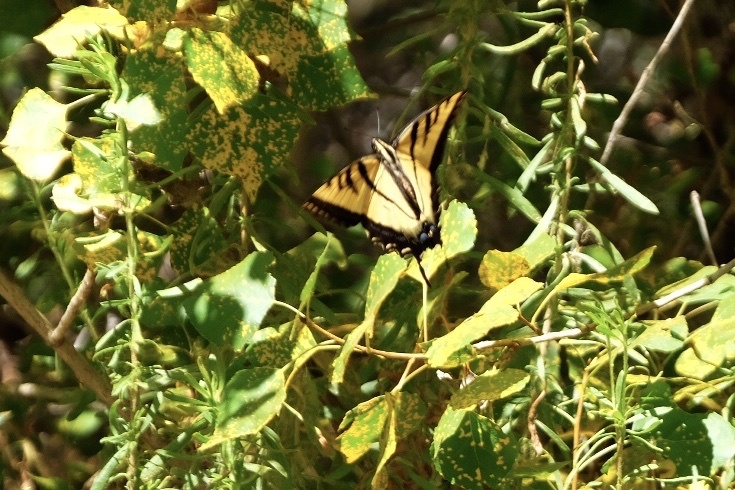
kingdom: Animalia
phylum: Arthropoda
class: Insecta
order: Lepidoptera
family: Papilionidae
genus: Papilio
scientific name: Papilio rutulus
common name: Western tiger swallowtail
